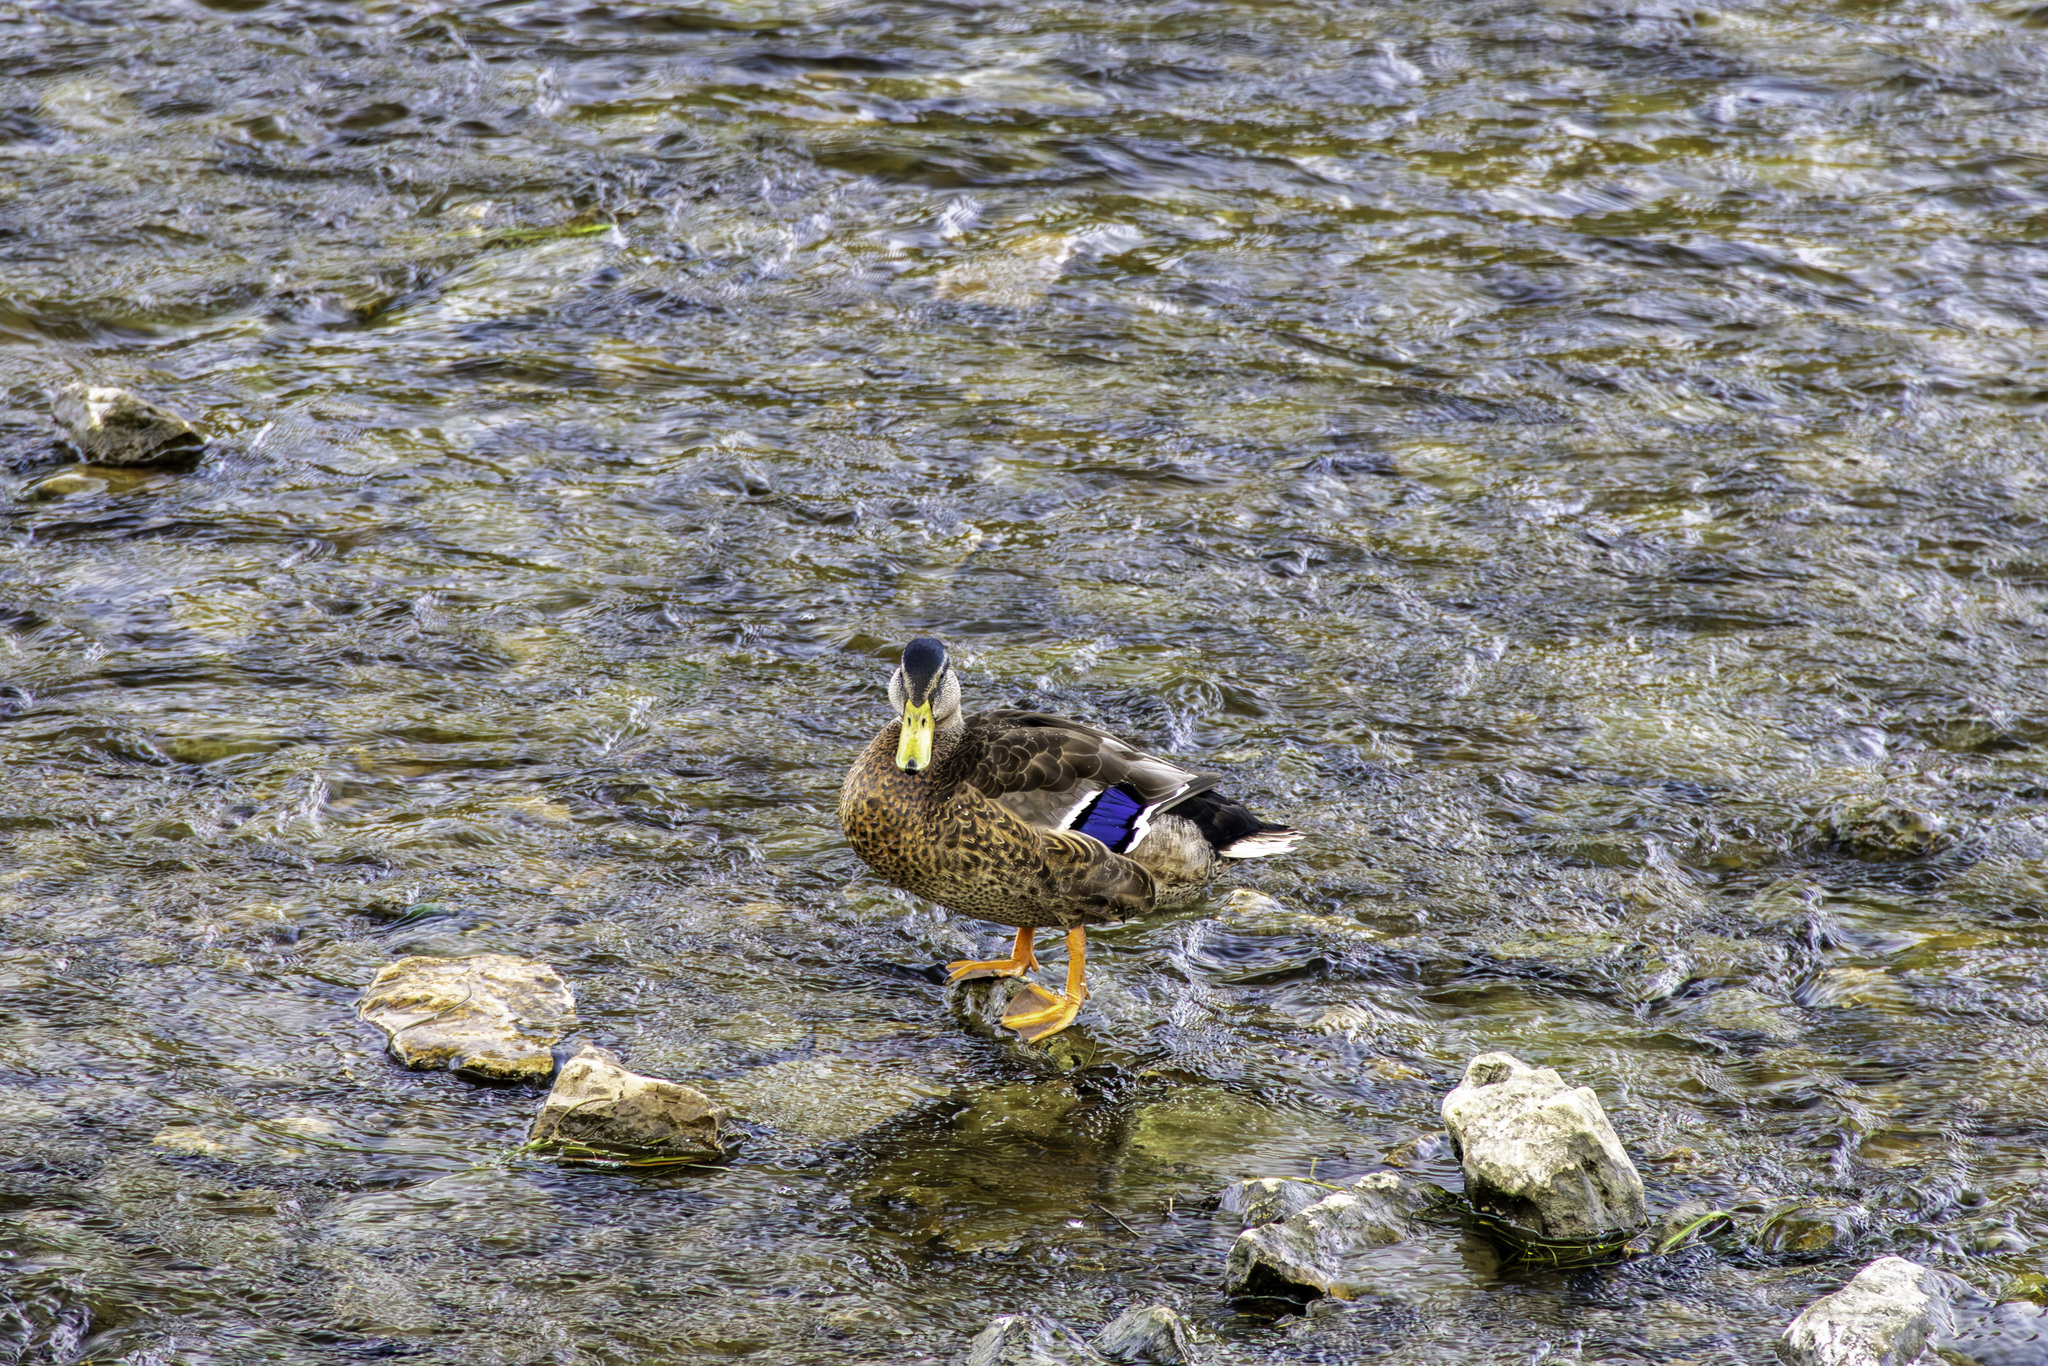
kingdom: Animalia
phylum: Chordata
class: Aves
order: Anseriformes
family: Anatidae
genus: Anas
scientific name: Anas platyrhynchos
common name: Mallard
